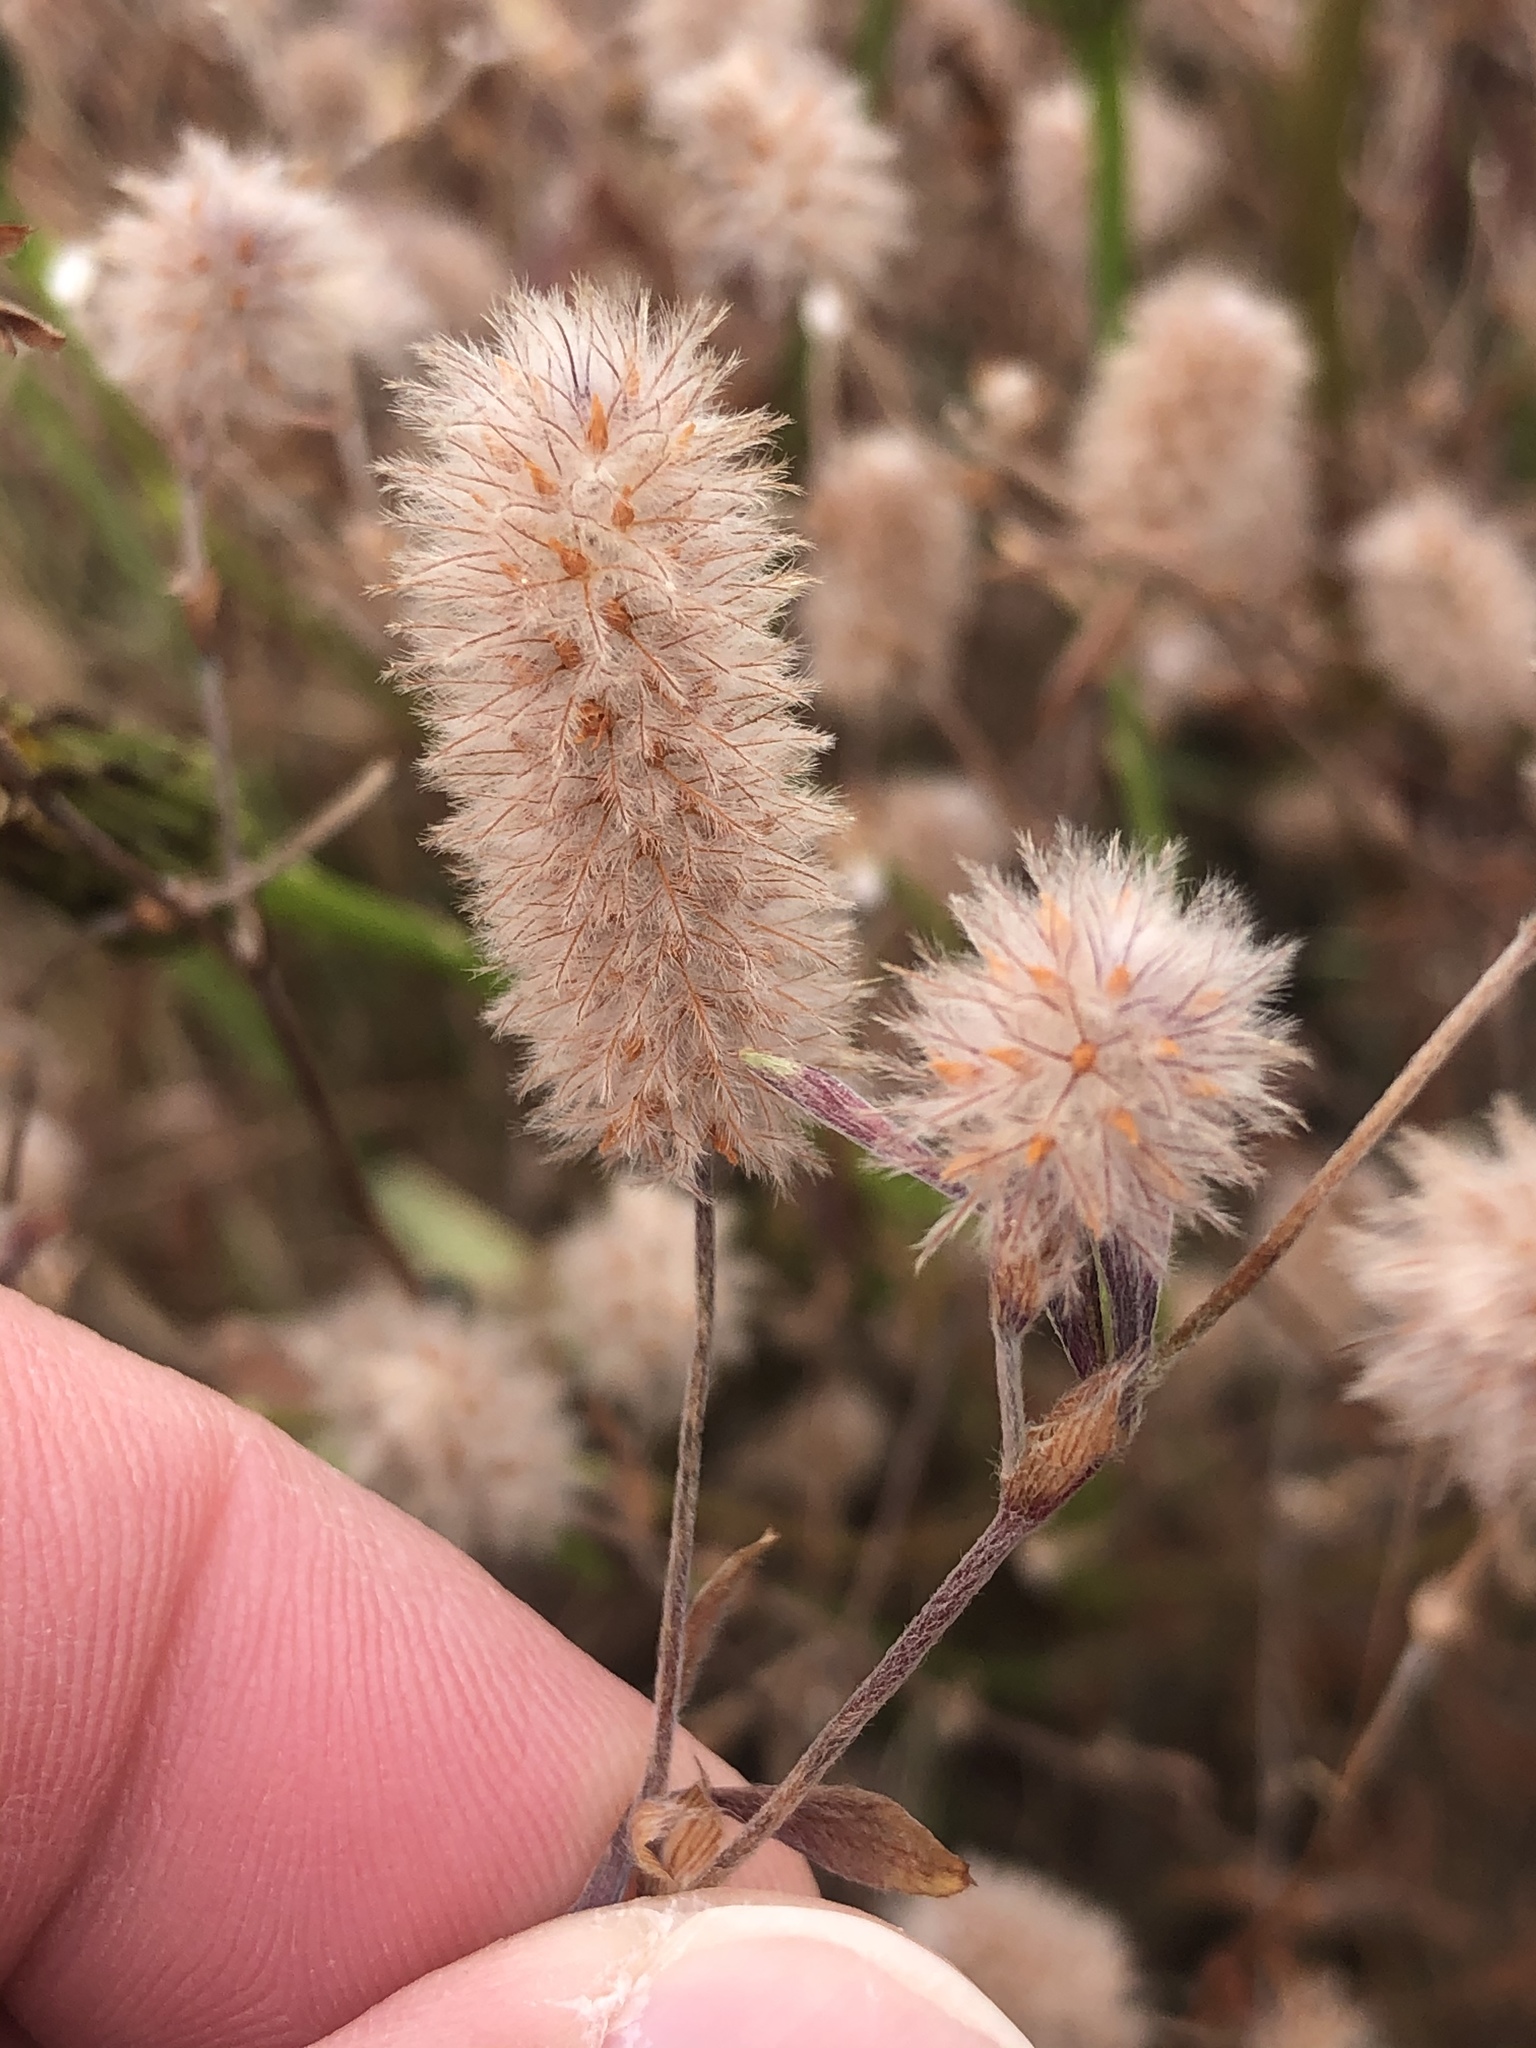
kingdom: Plantae
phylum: Tracheophyta
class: Magnoliopsida
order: Fabales
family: Fabaceae
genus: Trifolium
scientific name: Trifolium arvense
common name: Hare's-foot clover
